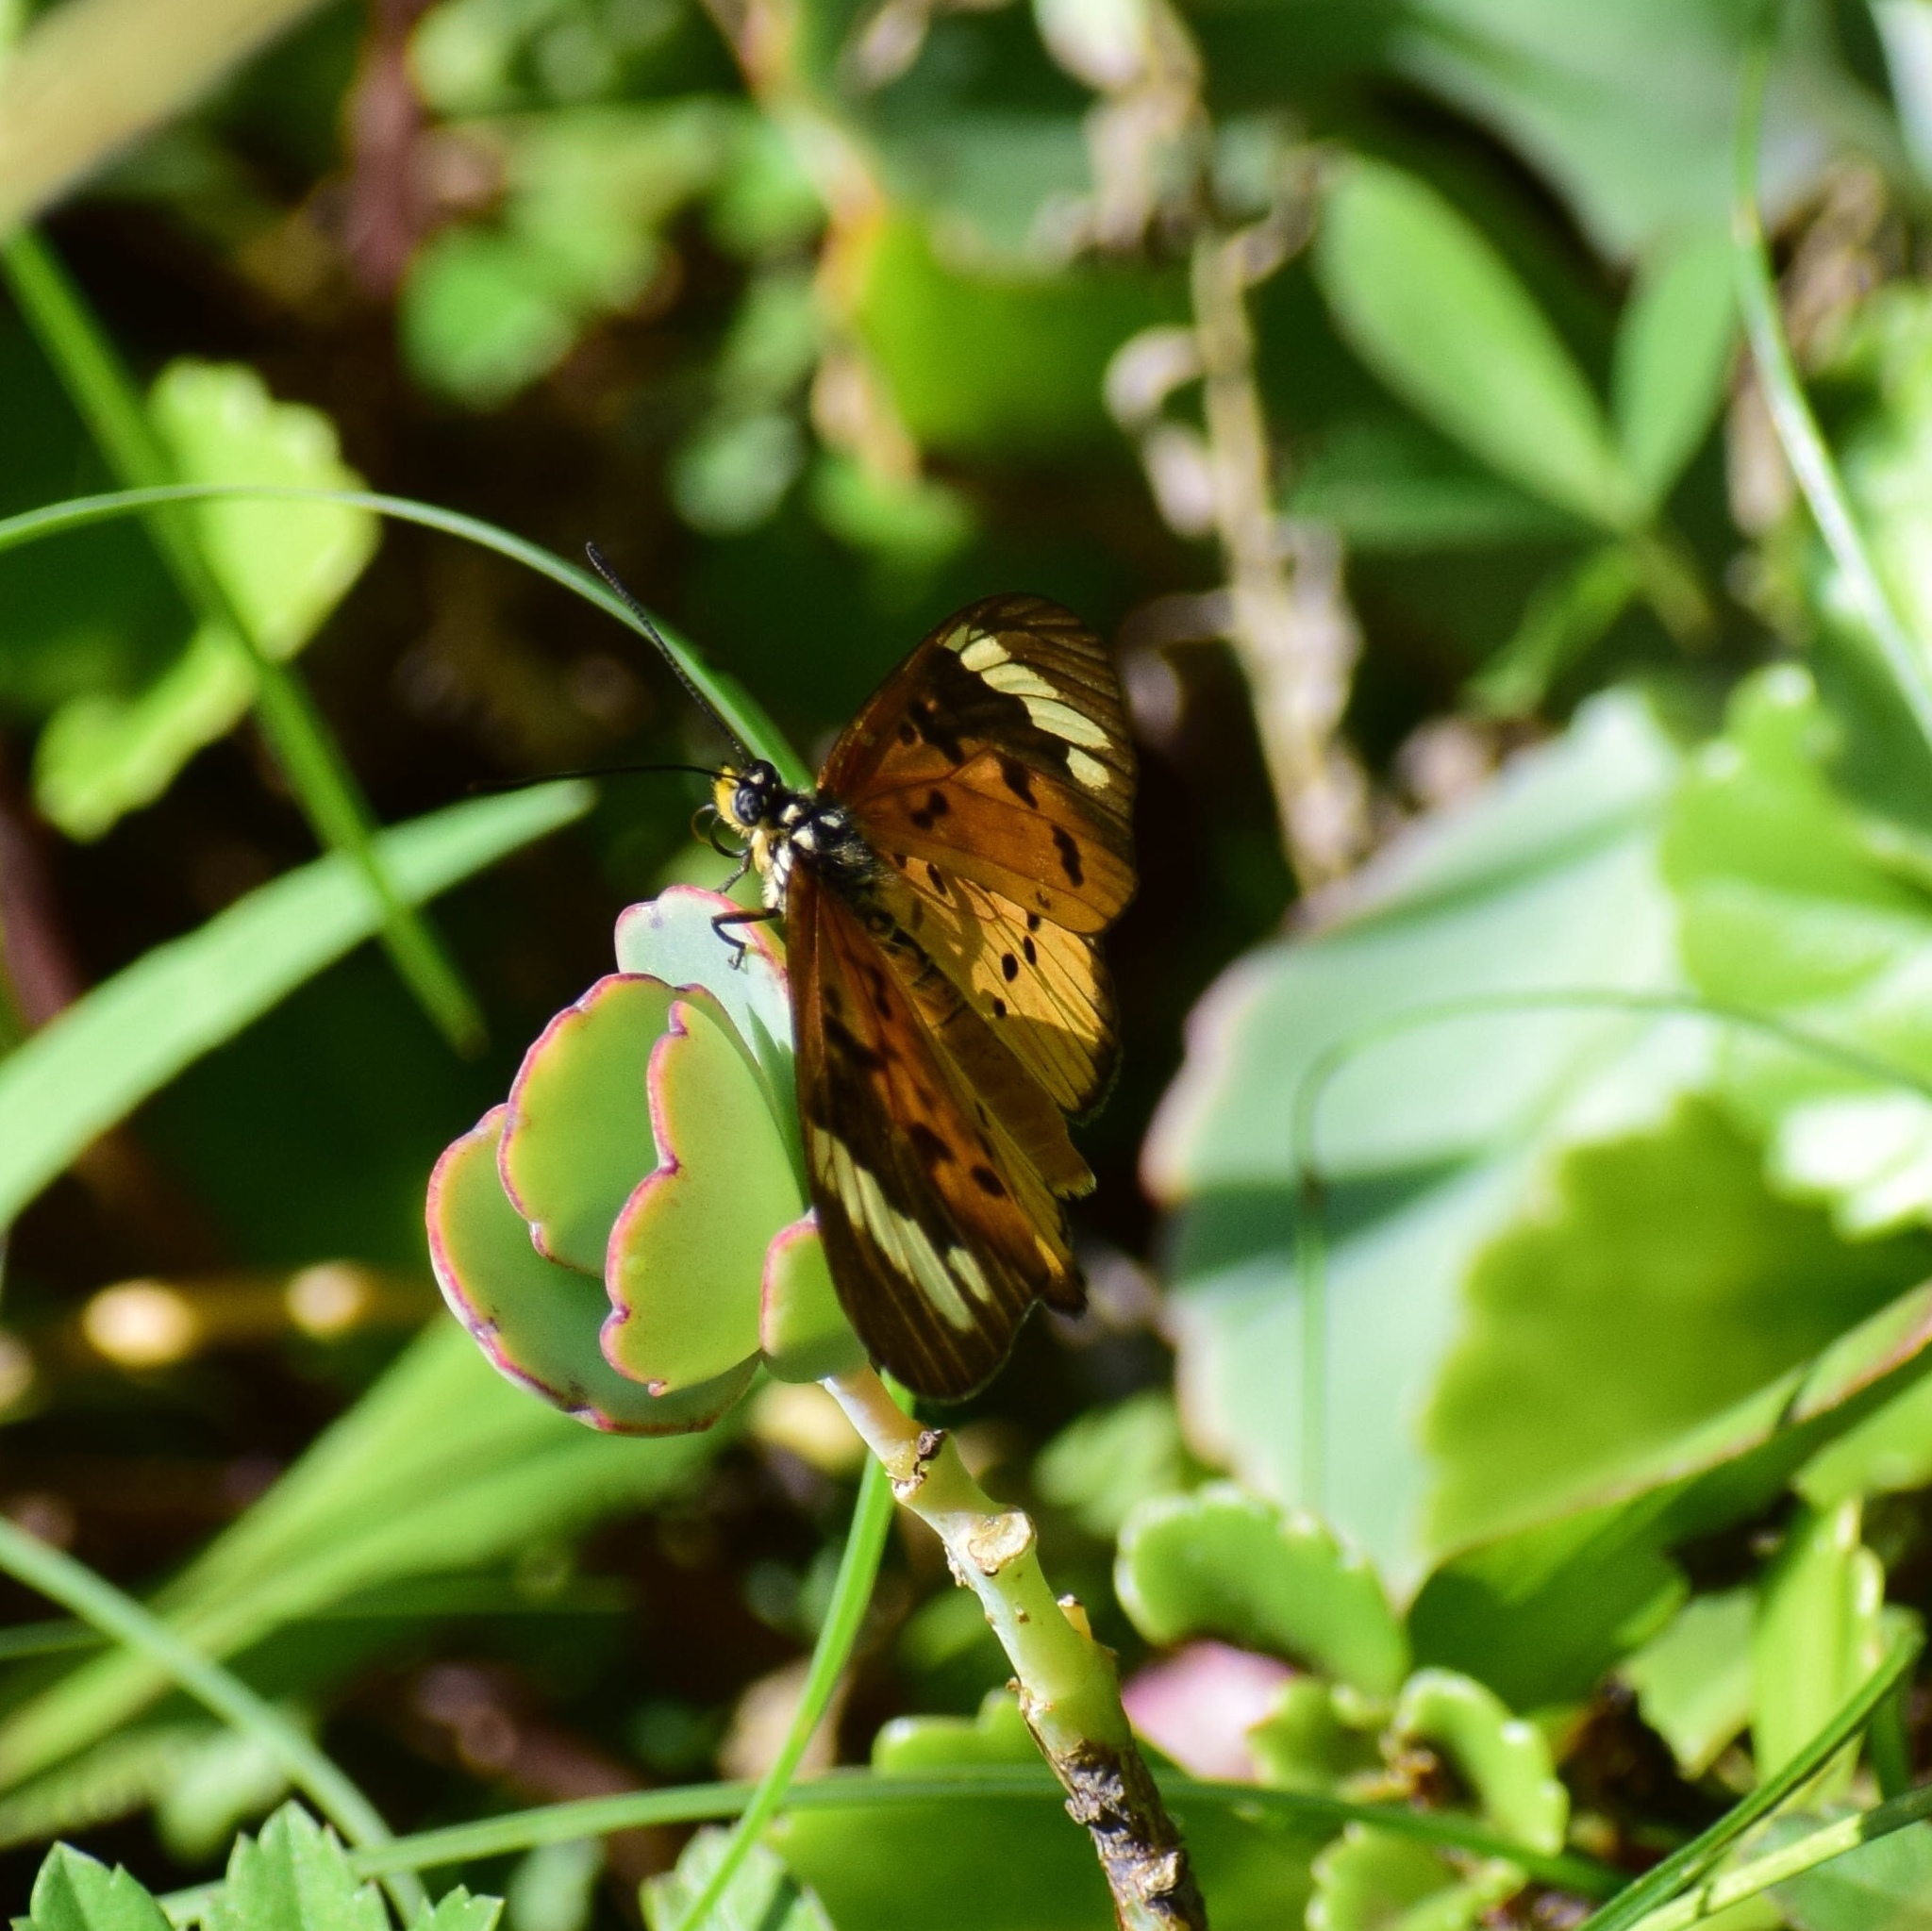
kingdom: Animalia
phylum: Arthropoda
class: Insecta
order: Lepidoptera
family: Nymphalidae
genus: Acraea
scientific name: Acraea Telchinia encedon
